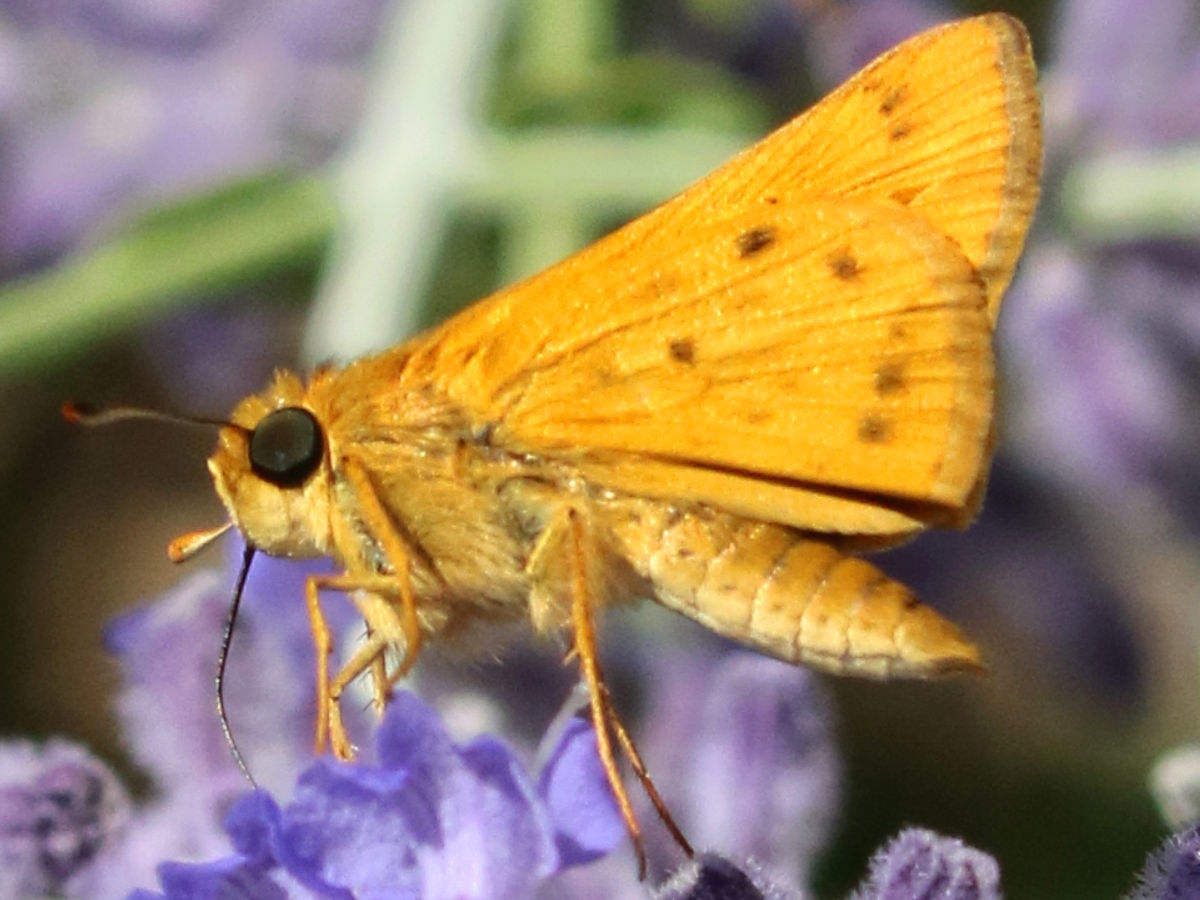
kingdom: Animalia
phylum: Arthropoda
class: Insecta
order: Lepidoptera
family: Hesperiidae
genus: Hylephila
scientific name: Hylephila phyleus
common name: Fiery skipper
